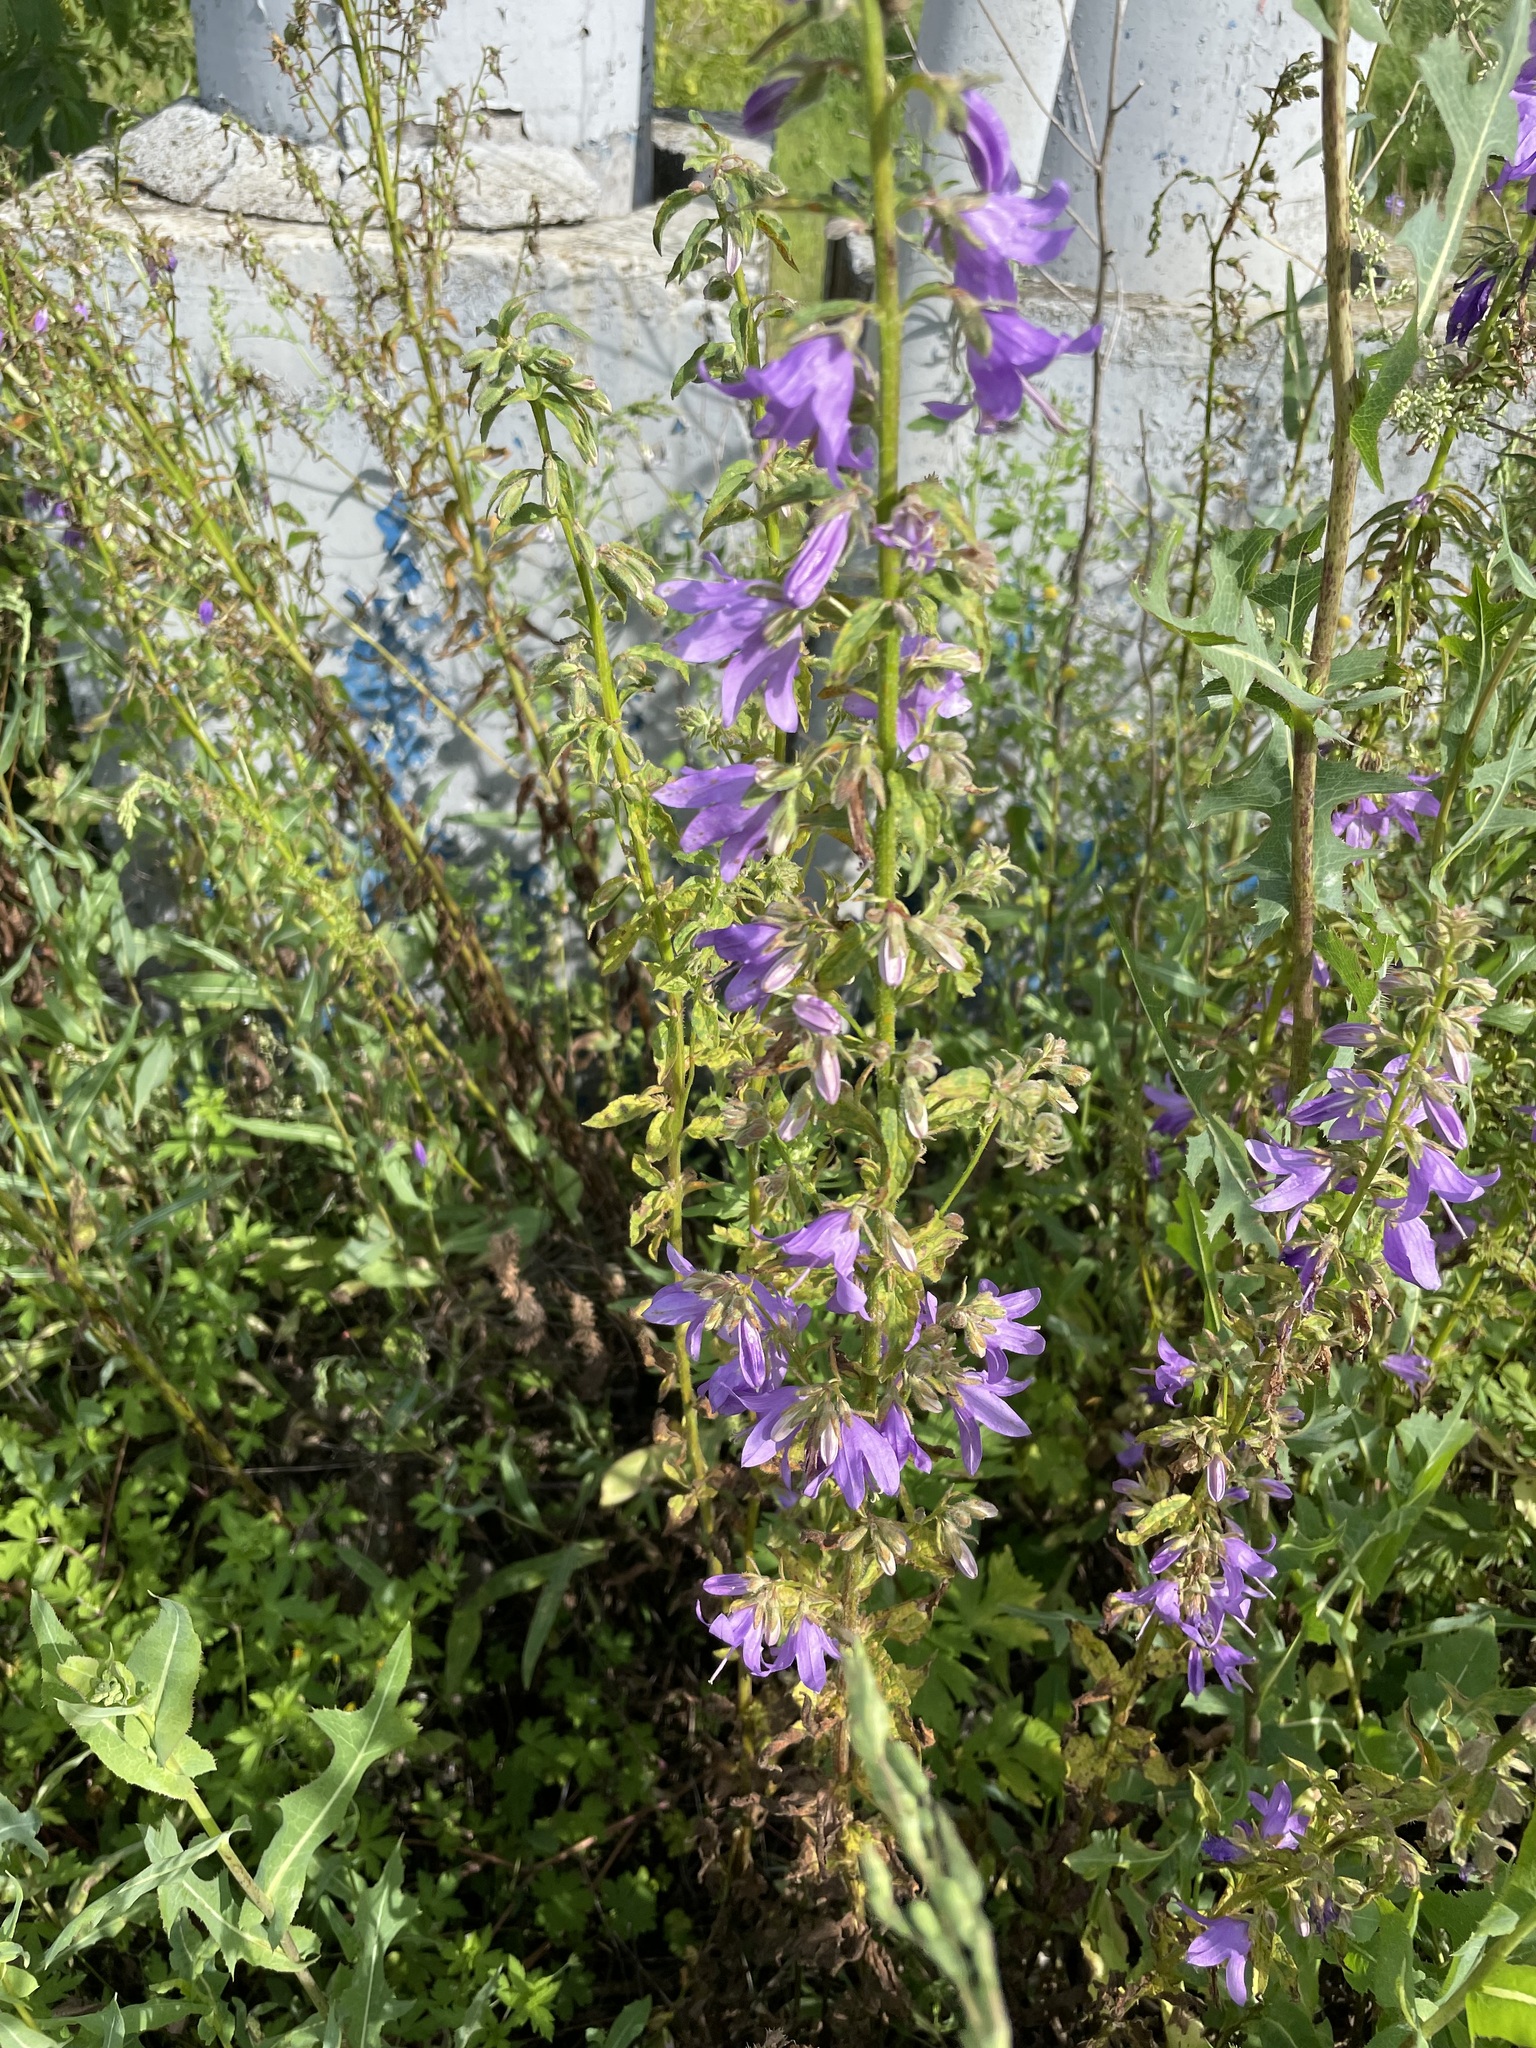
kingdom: Plantae
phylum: Tracheophyta
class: Magnoliopsida
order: Asterales
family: Campanulaceae
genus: Campanula
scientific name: Campanula rapunculoides
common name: Creeping bellflower
